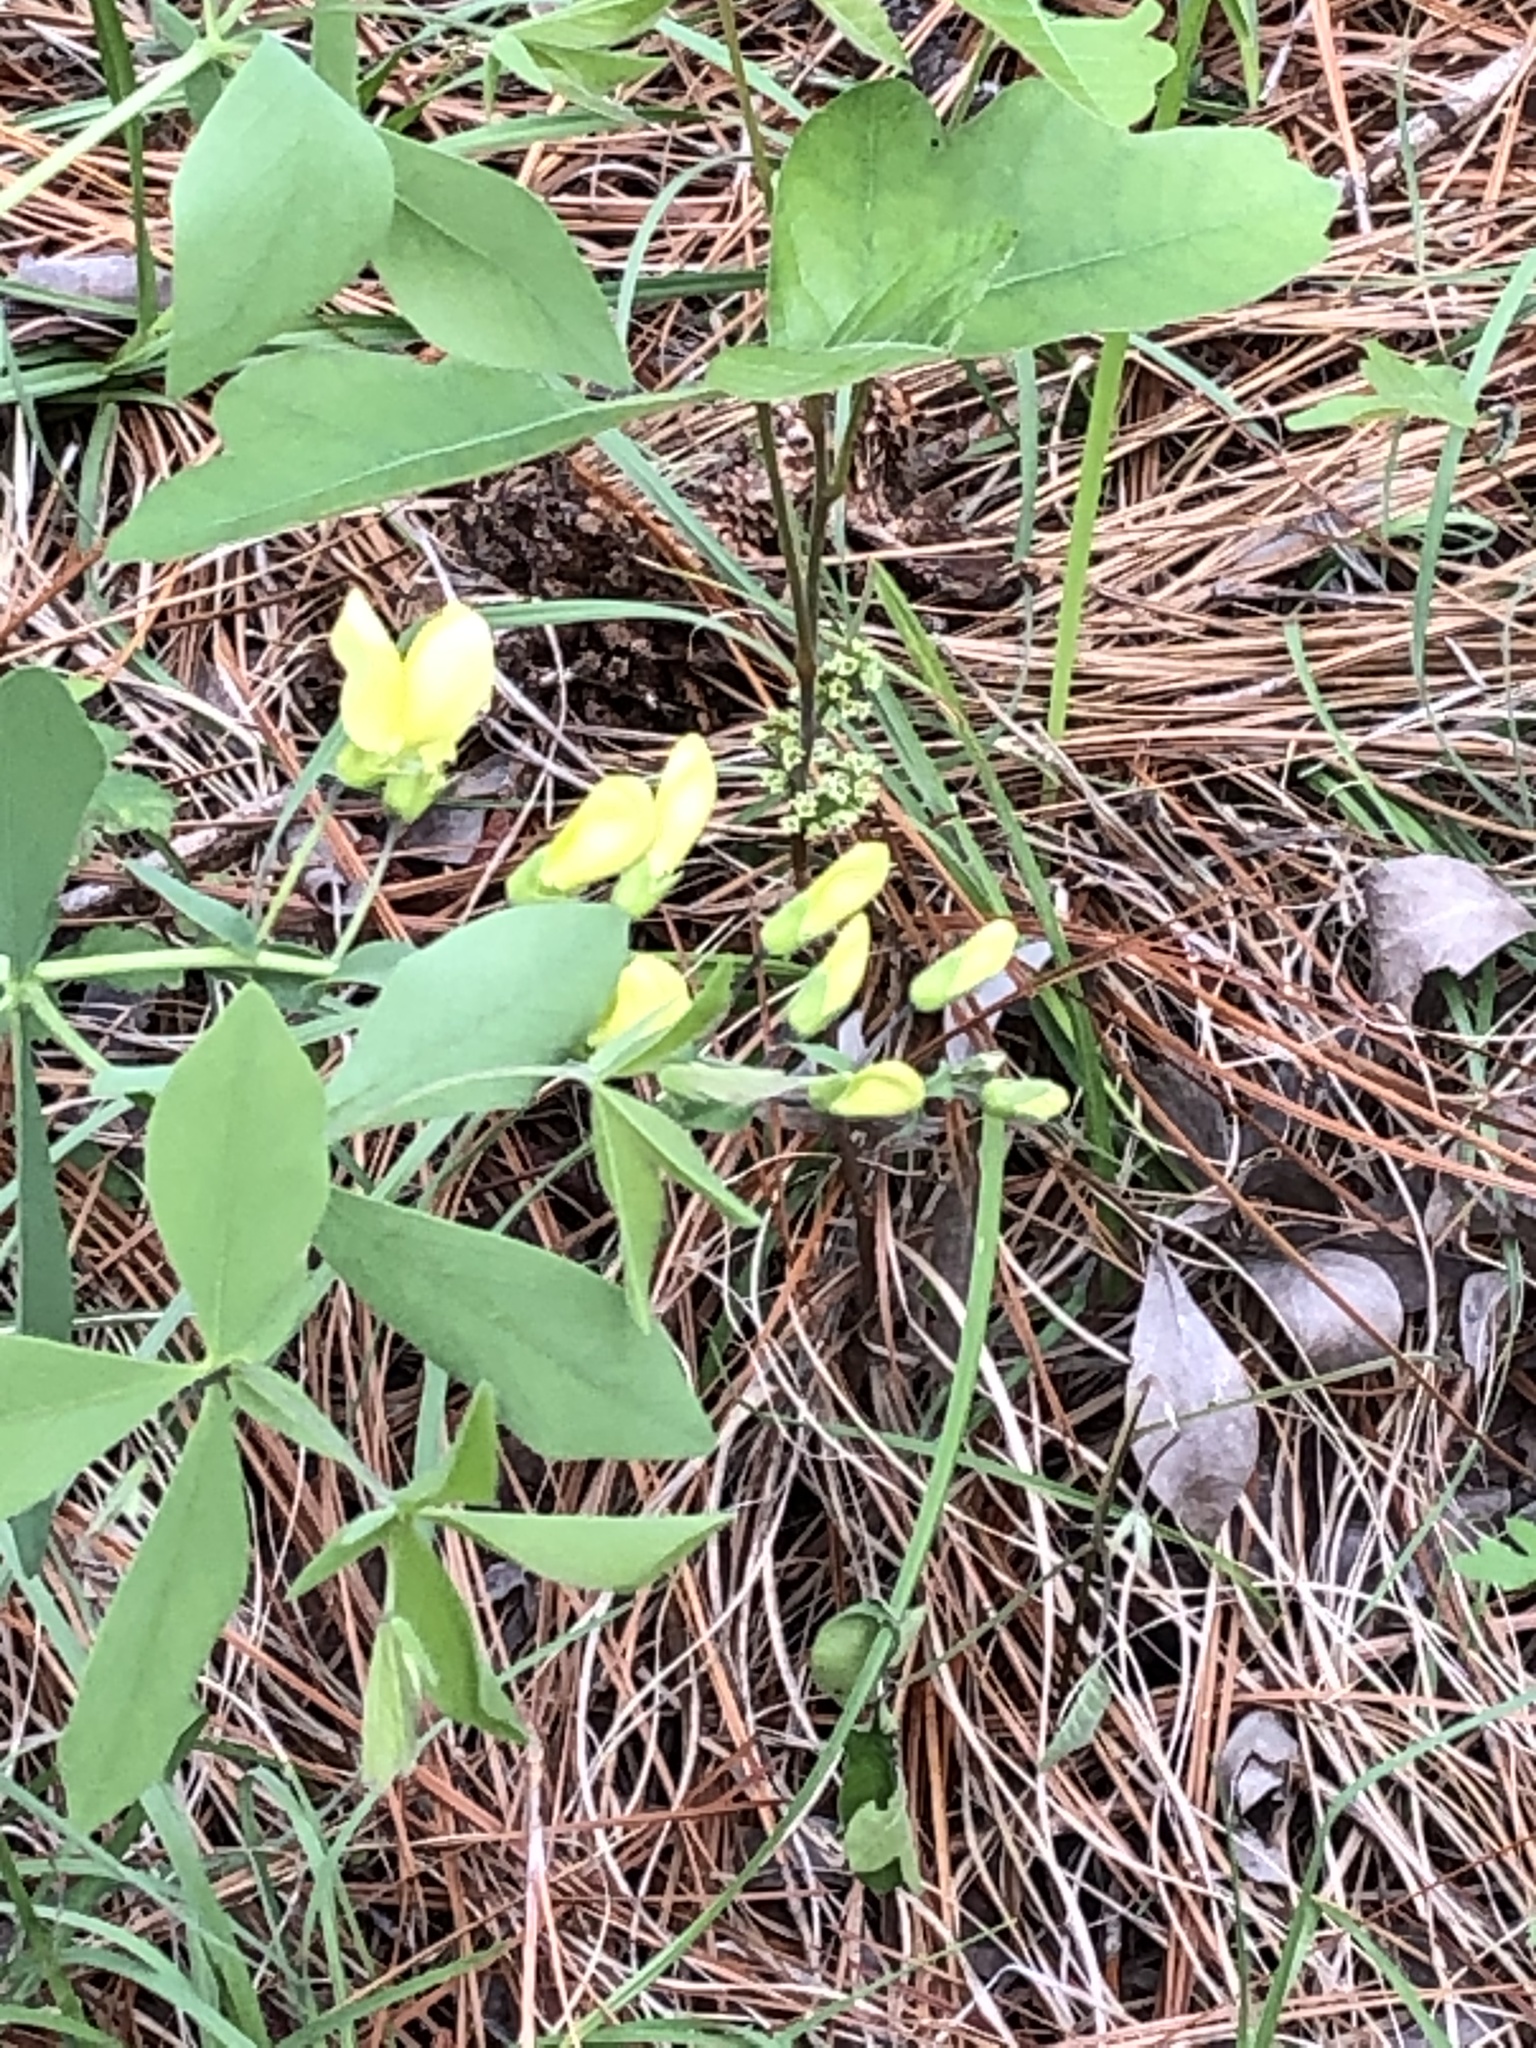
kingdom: Plantae
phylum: Tracheophyta
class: Magnoliopsida
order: Fabales
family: Fabaceae
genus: Baptisia
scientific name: Baptisia bracteata
